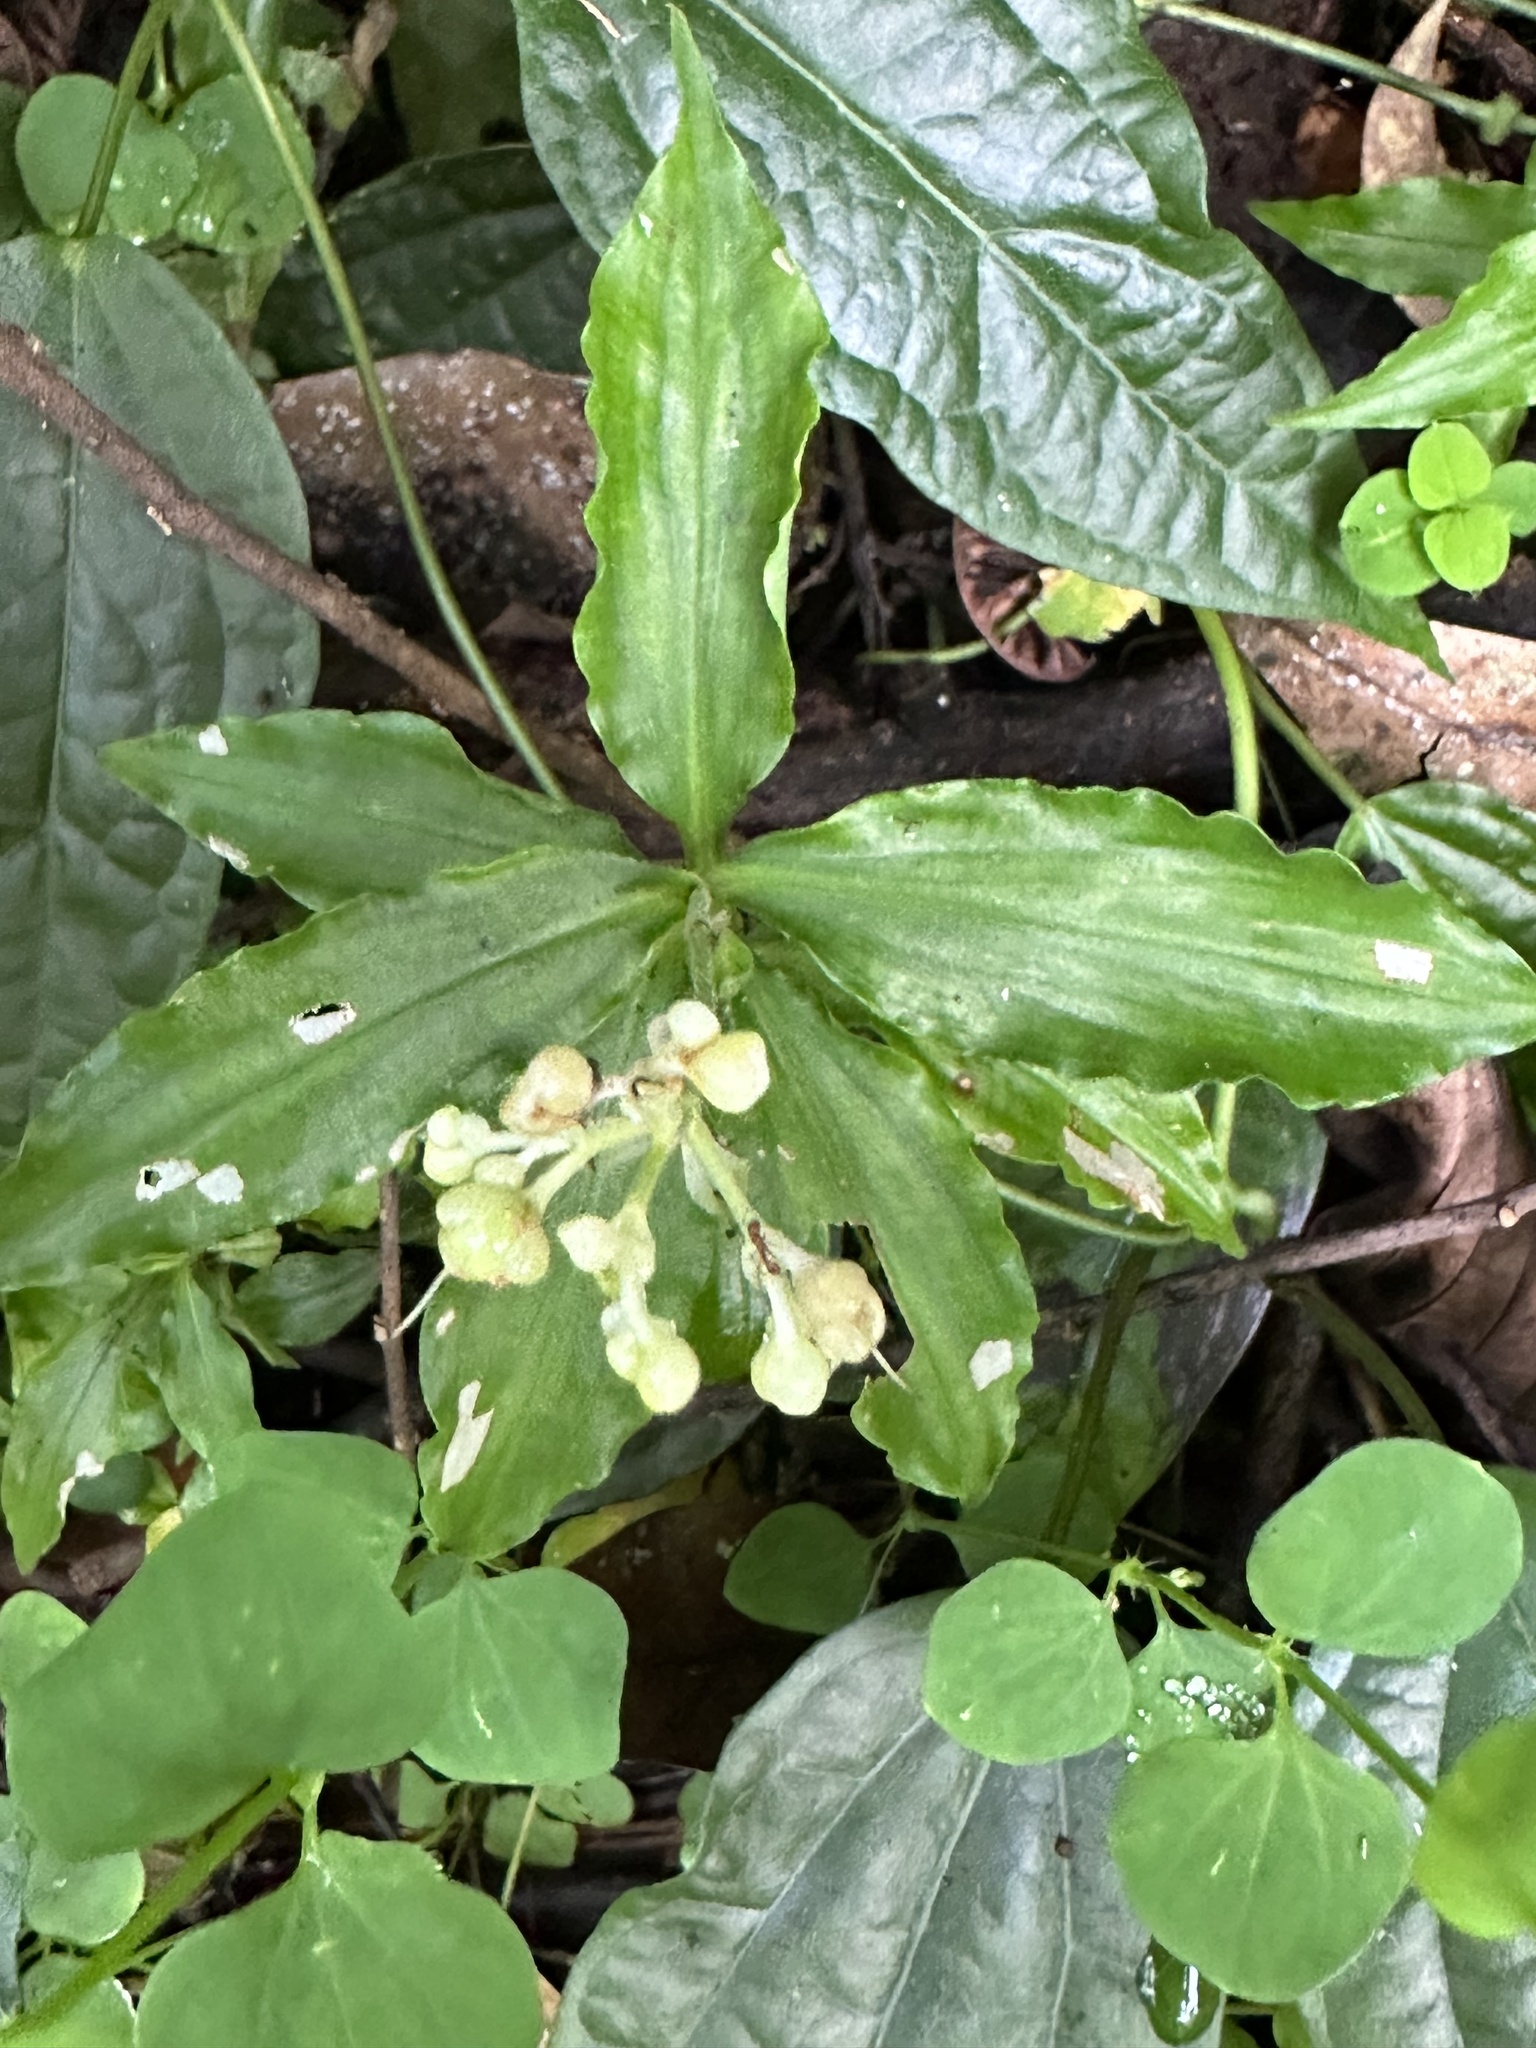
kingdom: Plantae
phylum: Tracheophyta
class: Liliopsida
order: Commelinales
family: Commelinaceae
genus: Pollia
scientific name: Pollia miranda
